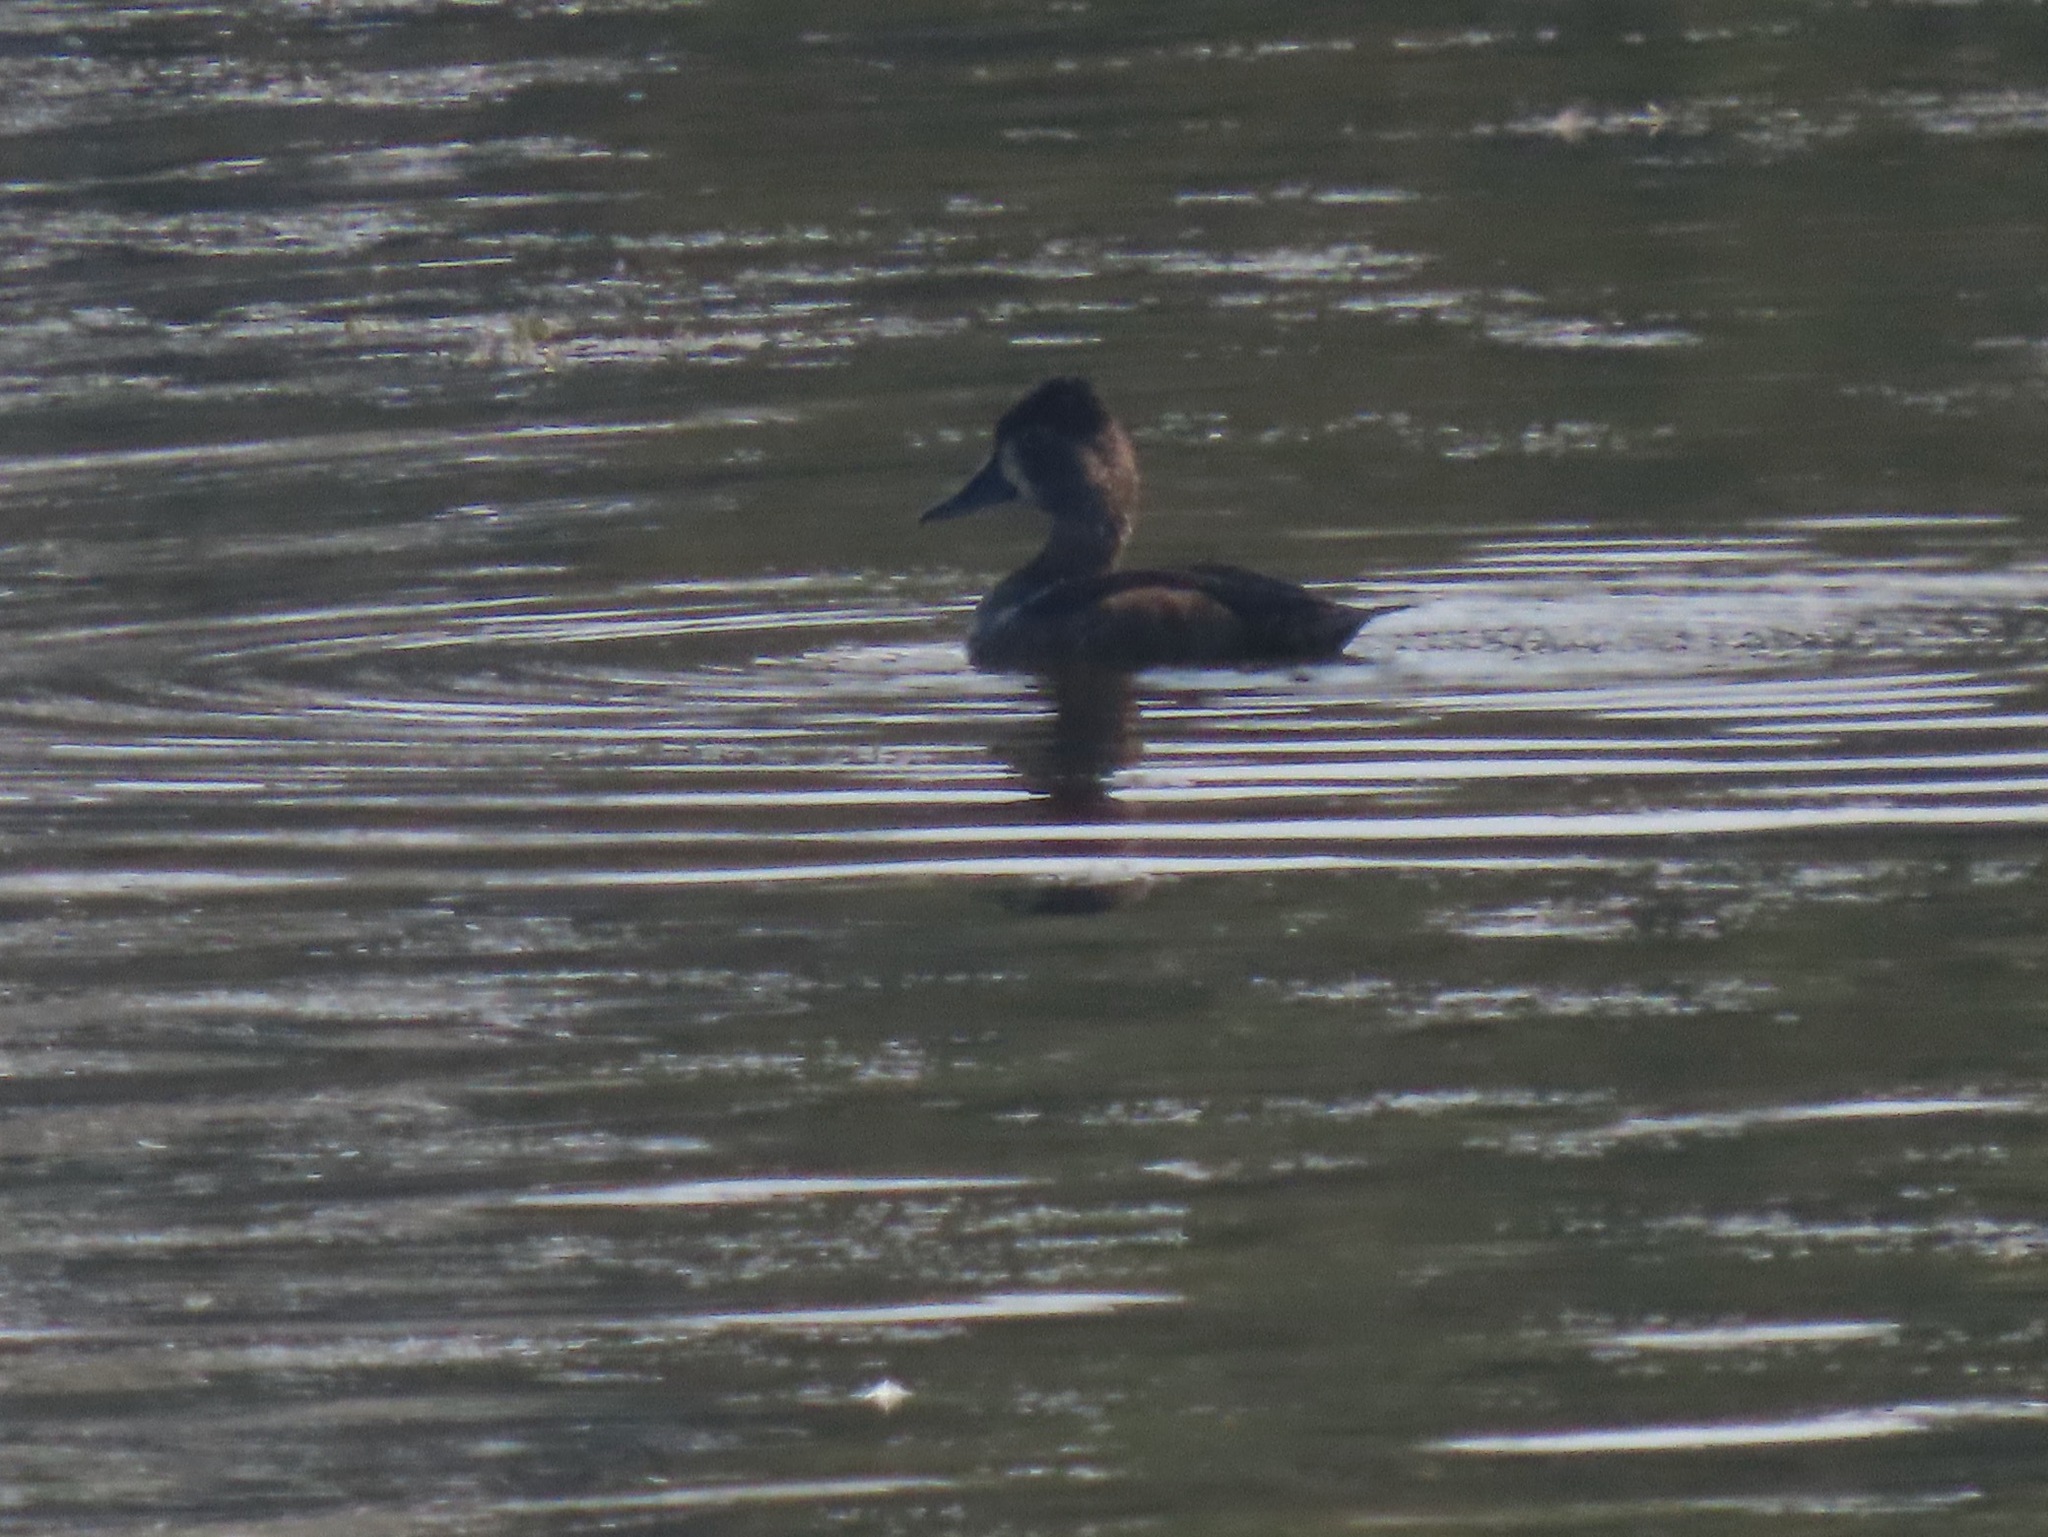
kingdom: Animalia
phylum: Chordata
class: Aves
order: Anseriformes
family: Anatidae
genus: Aythya
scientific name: Aythya collaris
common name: Ring-necked duck
